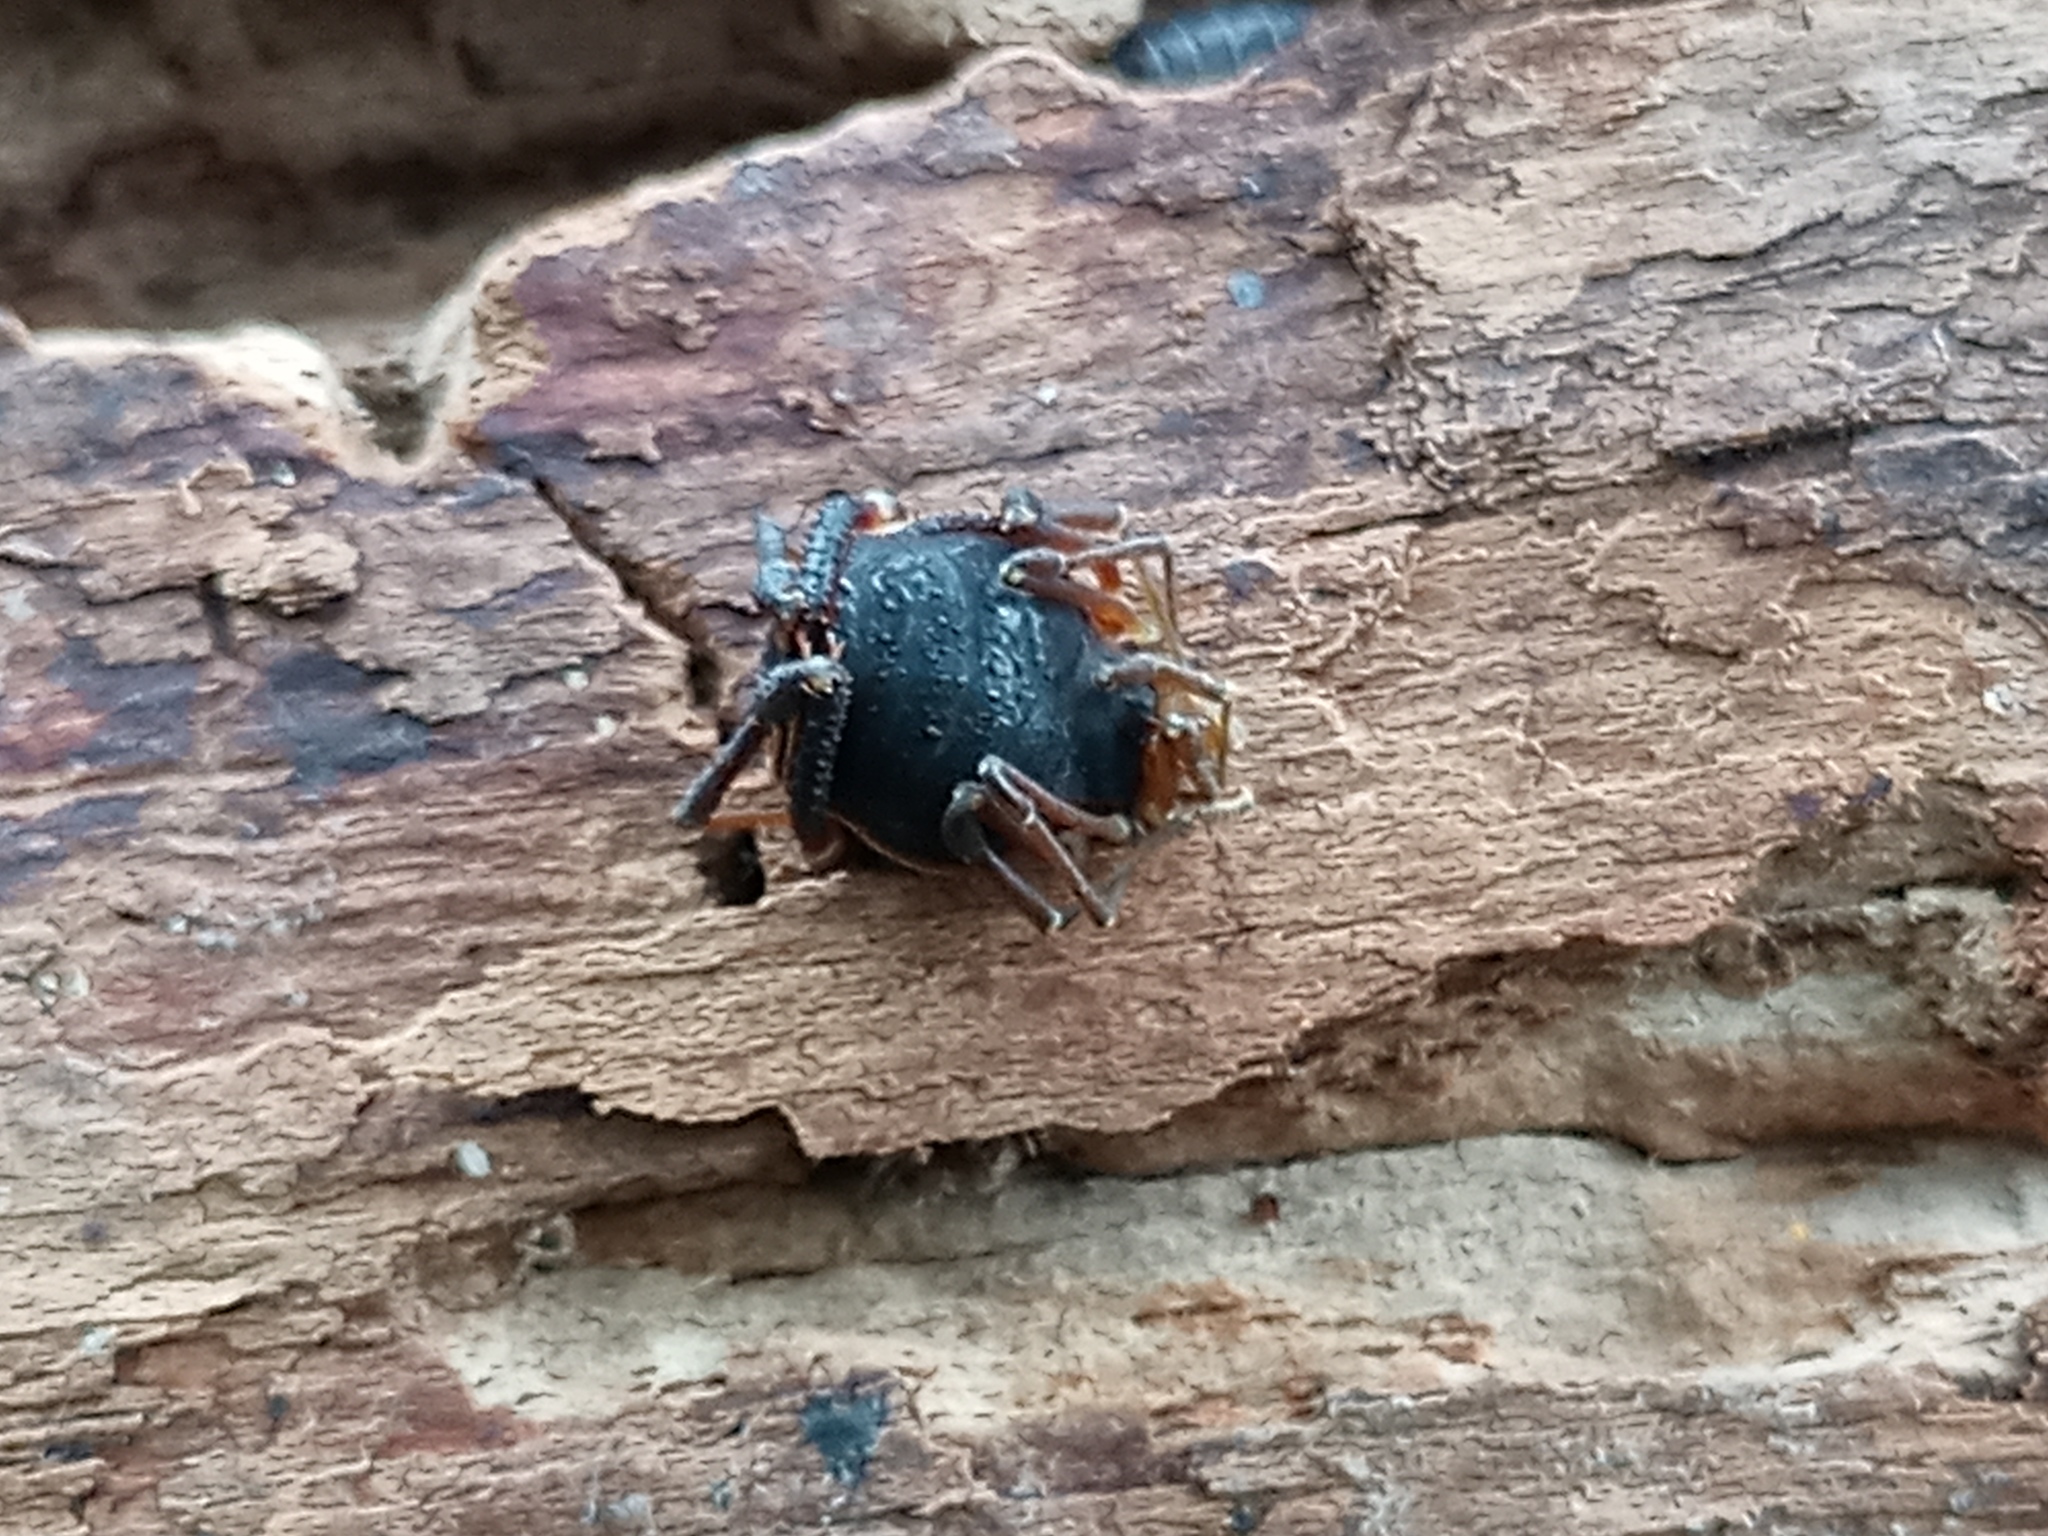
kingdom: Animalia
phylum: Arthropoda
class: Arachnida
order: Opiliones
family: Gonyleptidae
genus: Acanthopachylus
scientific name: Acanthopachylus robustus
